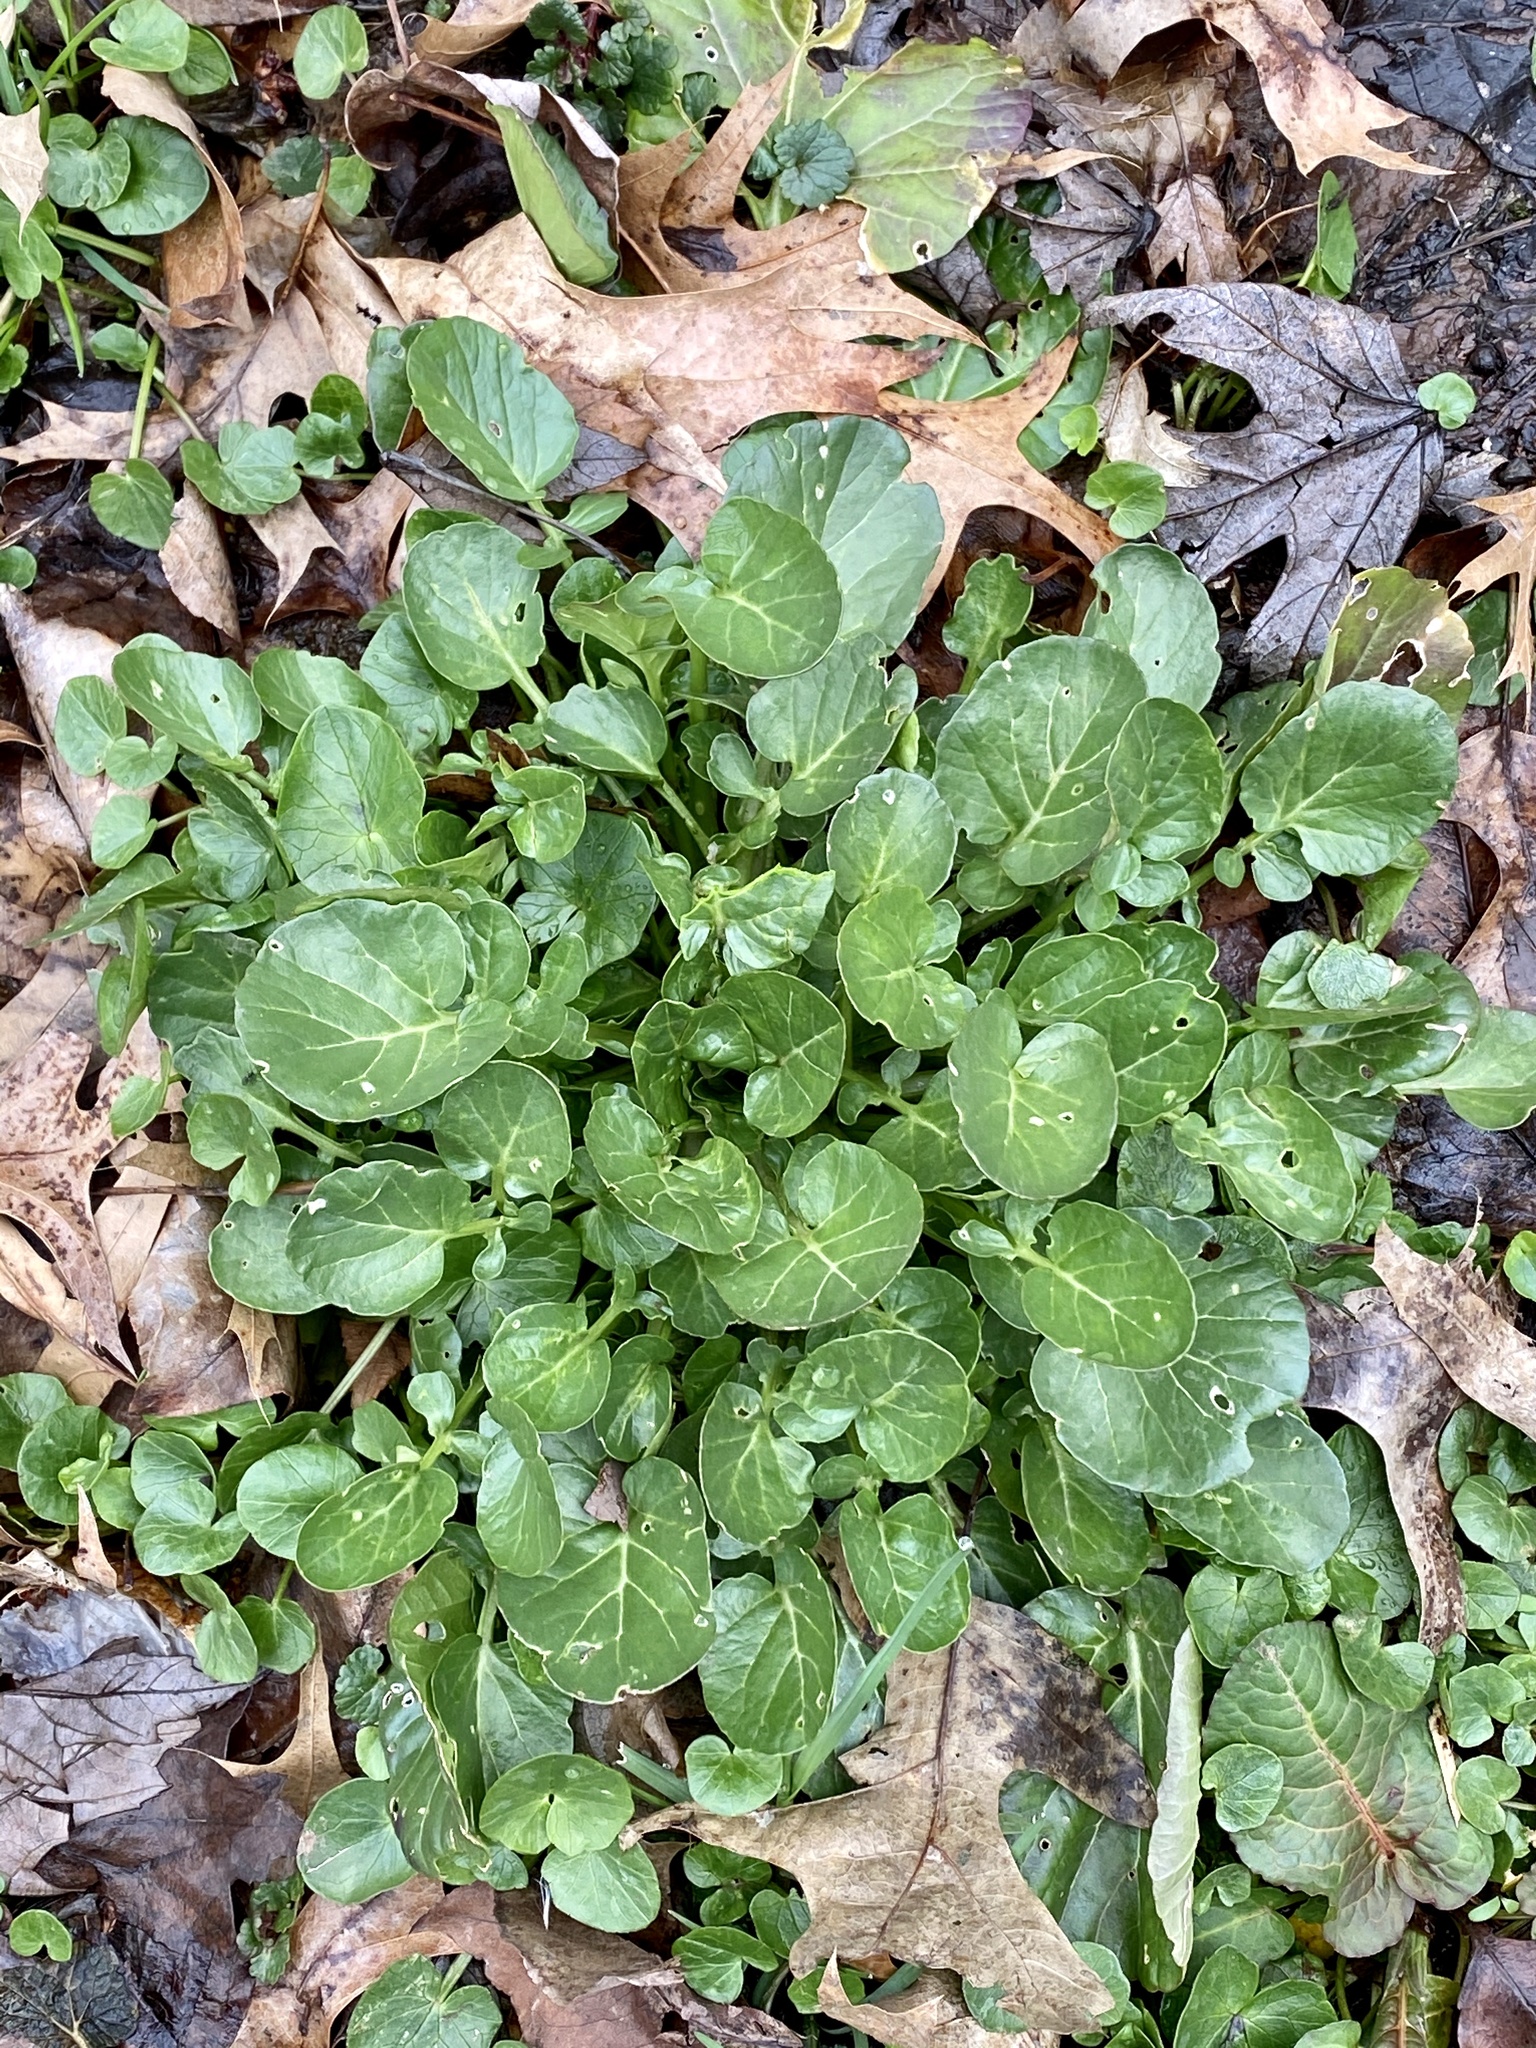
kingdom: Plantae
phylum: Tracheophyta
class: Magnoliopsida
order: Brassicales
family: Brassicaceae
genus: Barbarea
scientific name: Barbarea vulgaris
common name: Cressy-greens
